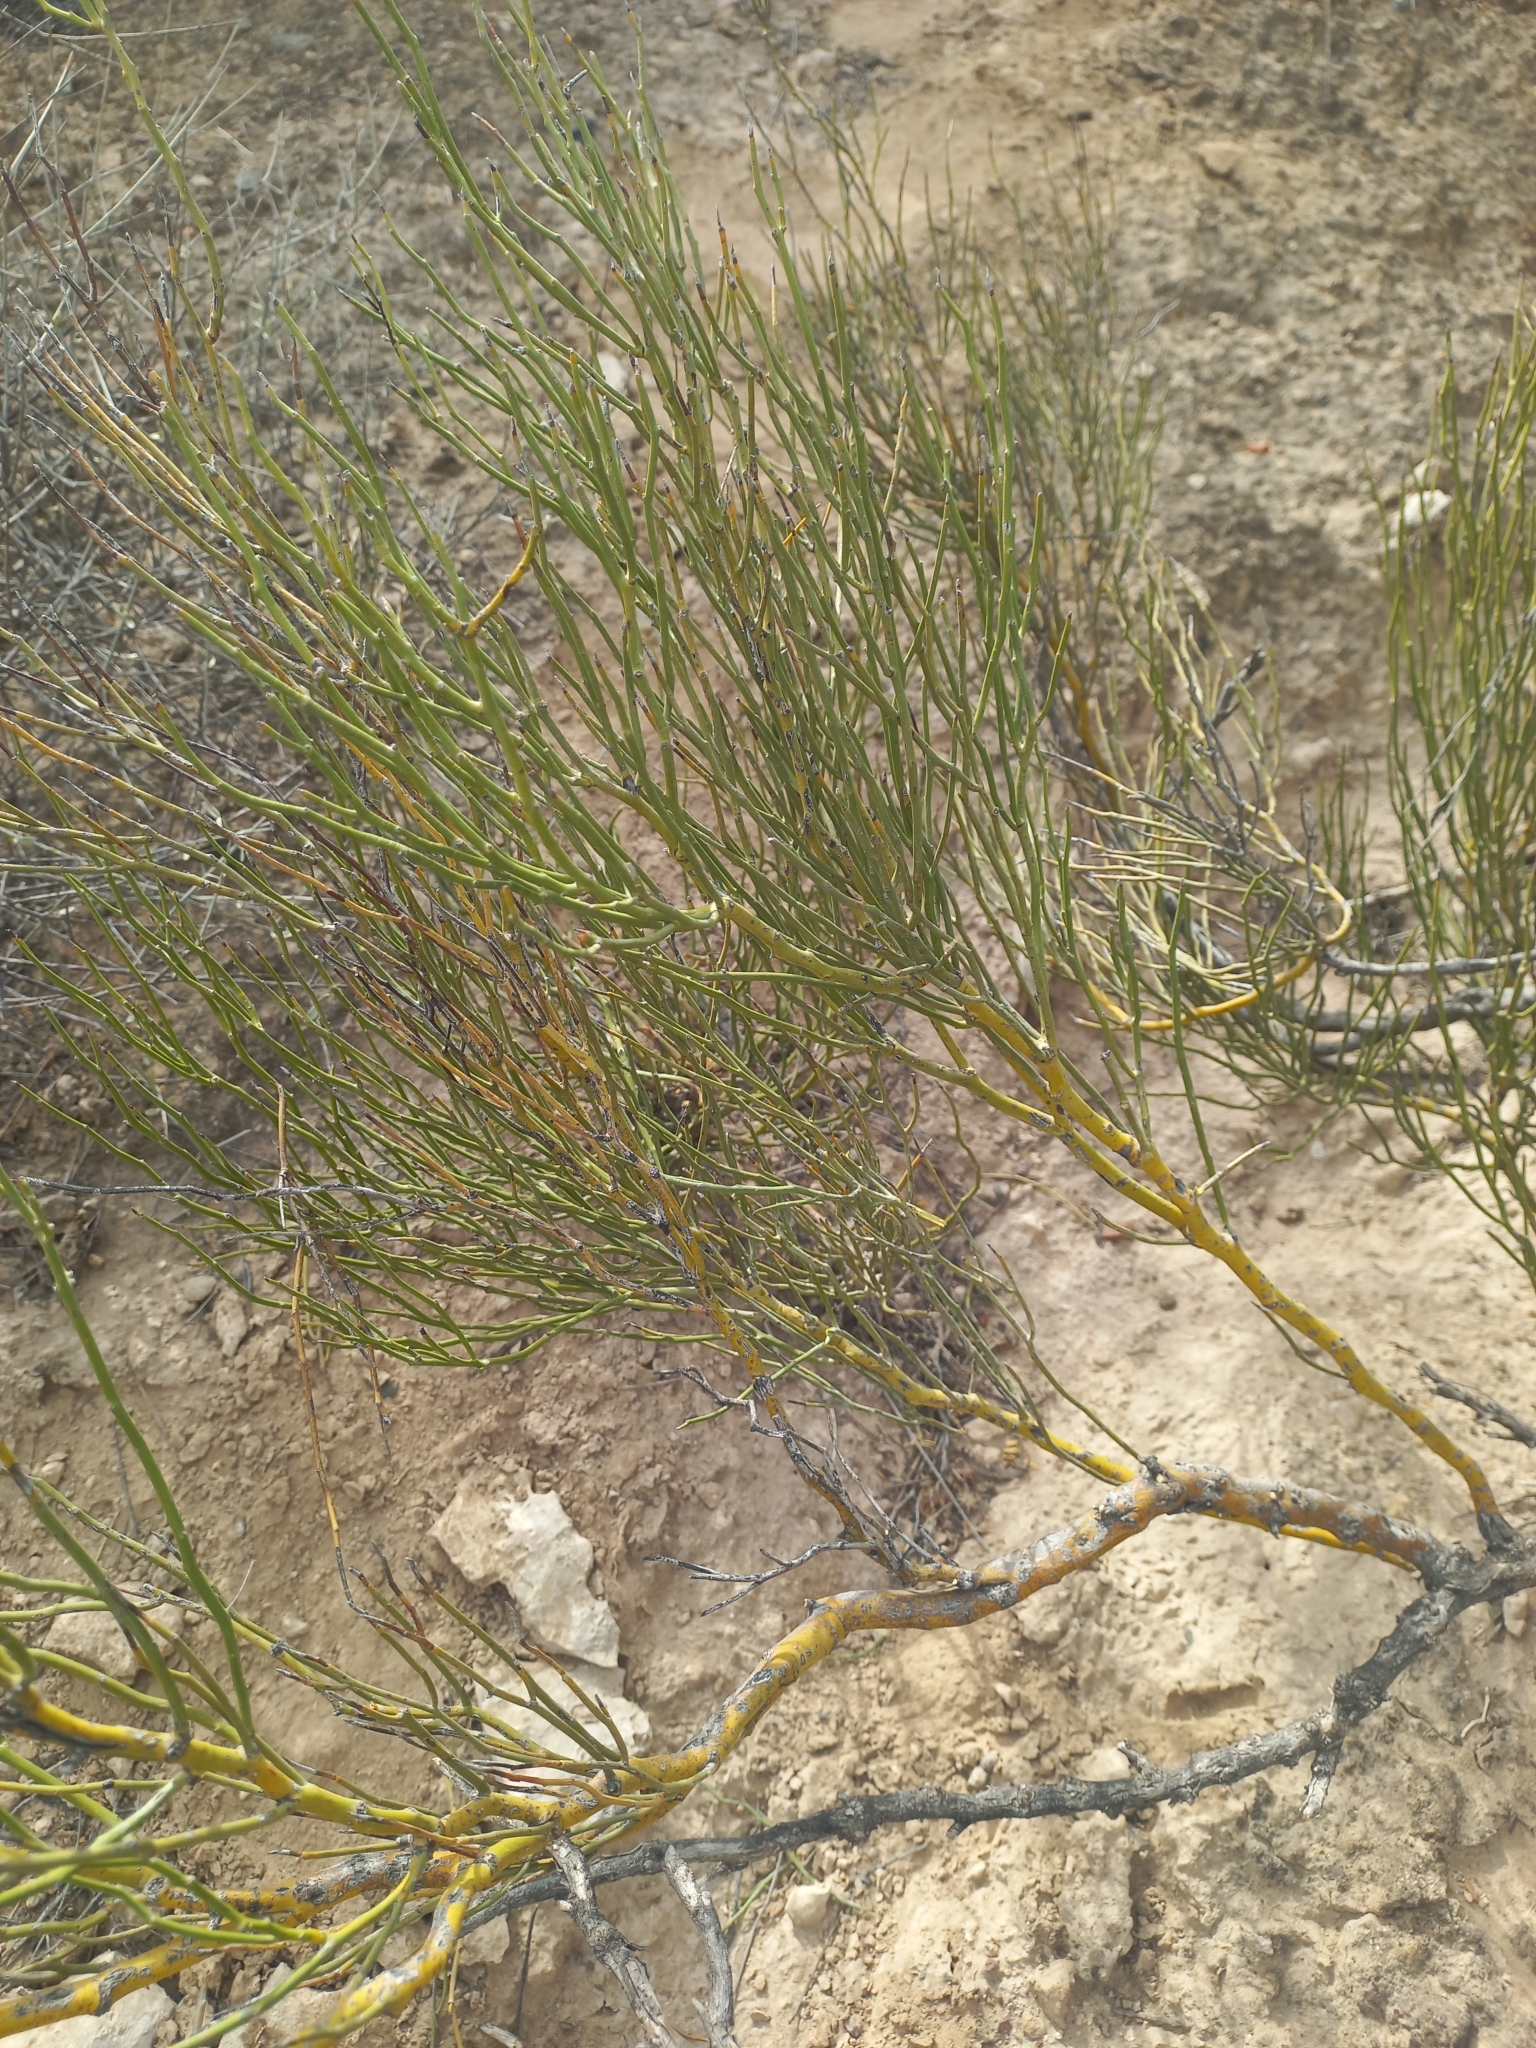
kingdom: Plantae
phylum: Tracheophyta
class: Magnoliopsida
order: Fabales
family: Fabaceae
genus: Senna
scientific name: Senna aphylla
